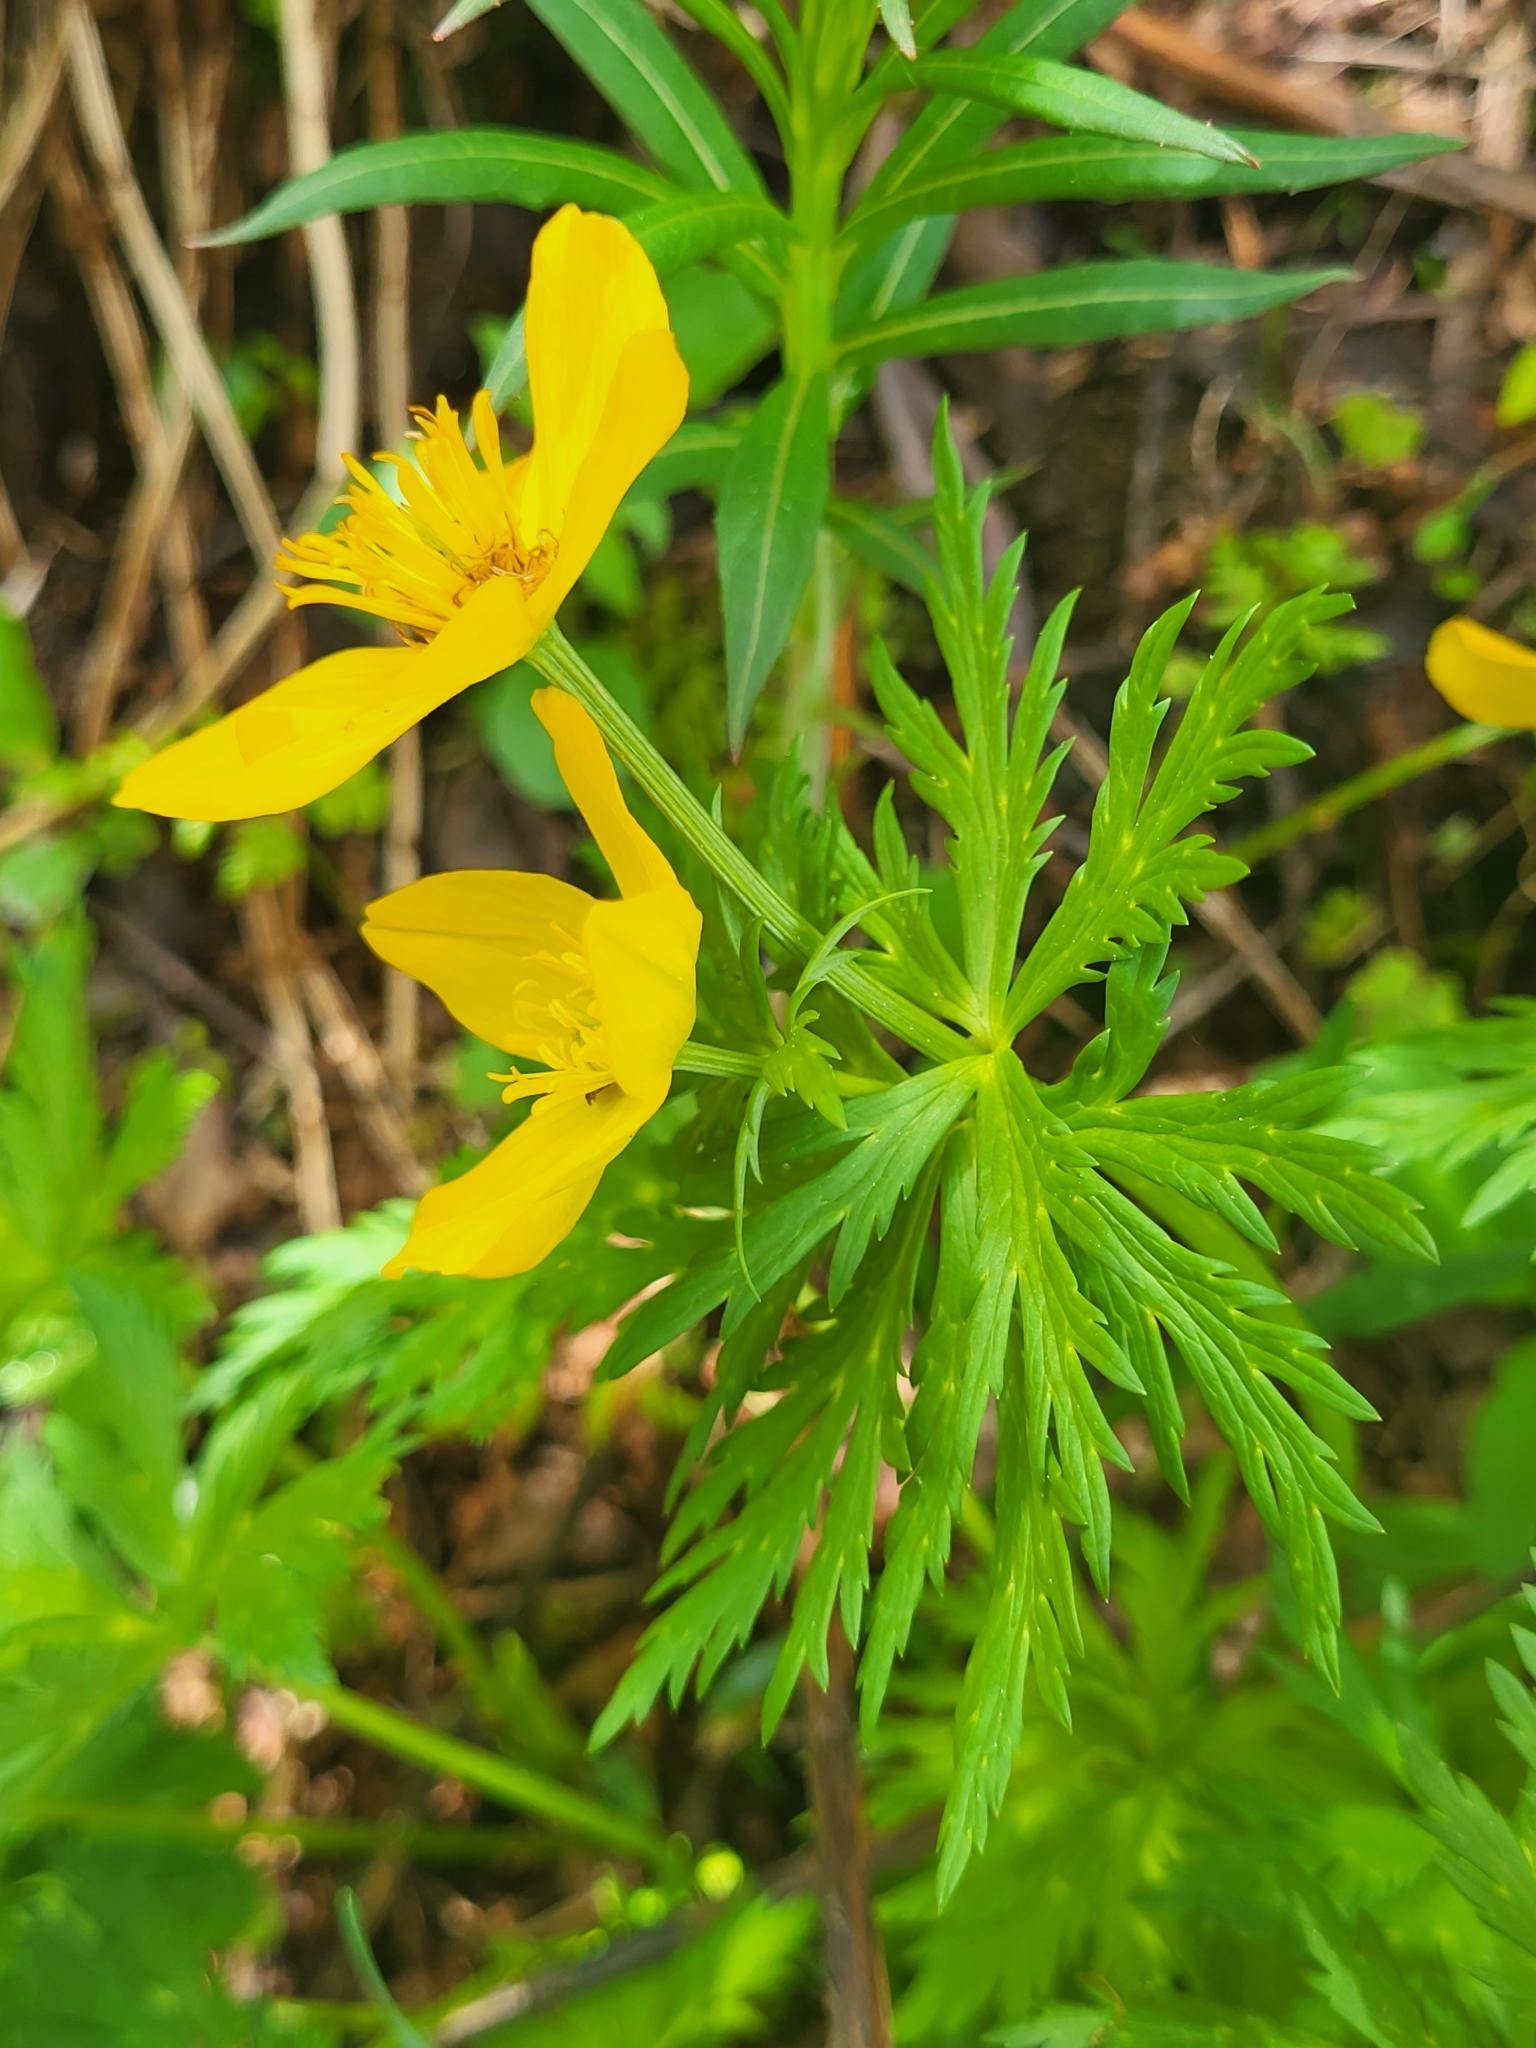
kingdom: Plantae
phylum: Tracheophyta
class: Magnoliopsida
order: Ranunculales
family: Ranunculaceae
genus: Trollius
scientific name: Trollius ranunculinus
